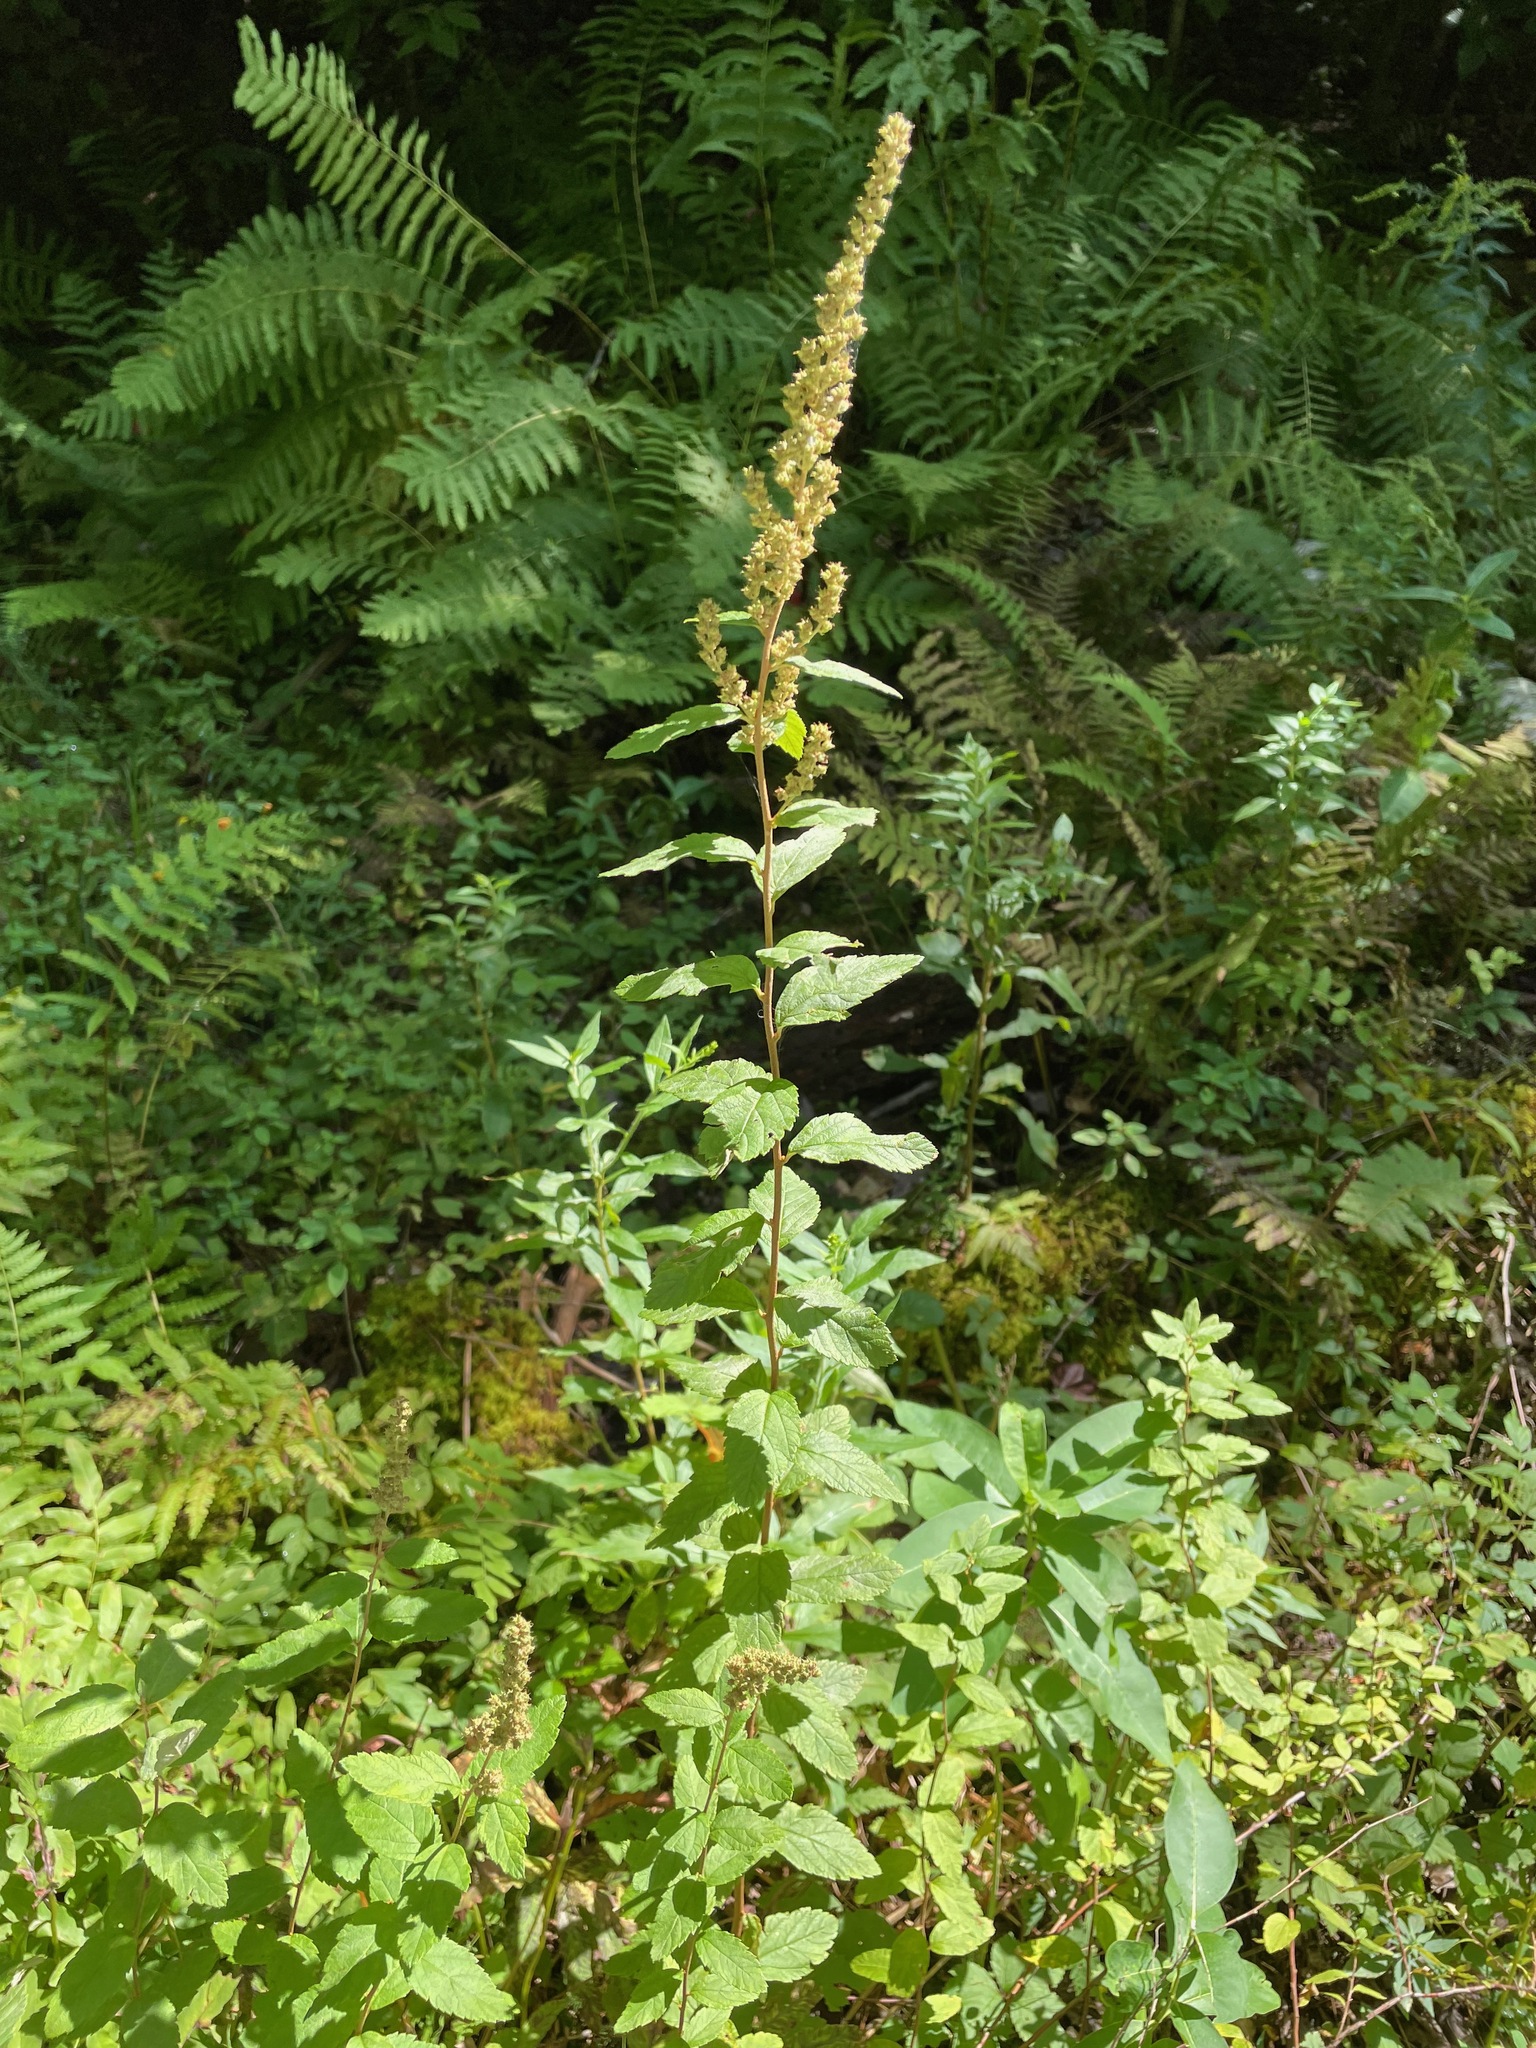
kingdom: Plantae
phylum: Tracheophyta
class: Magnoliopsida
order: Rosales
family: Rosaceae
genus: Spiraea
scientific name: Spiraea tomentosa
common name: Hardhack
